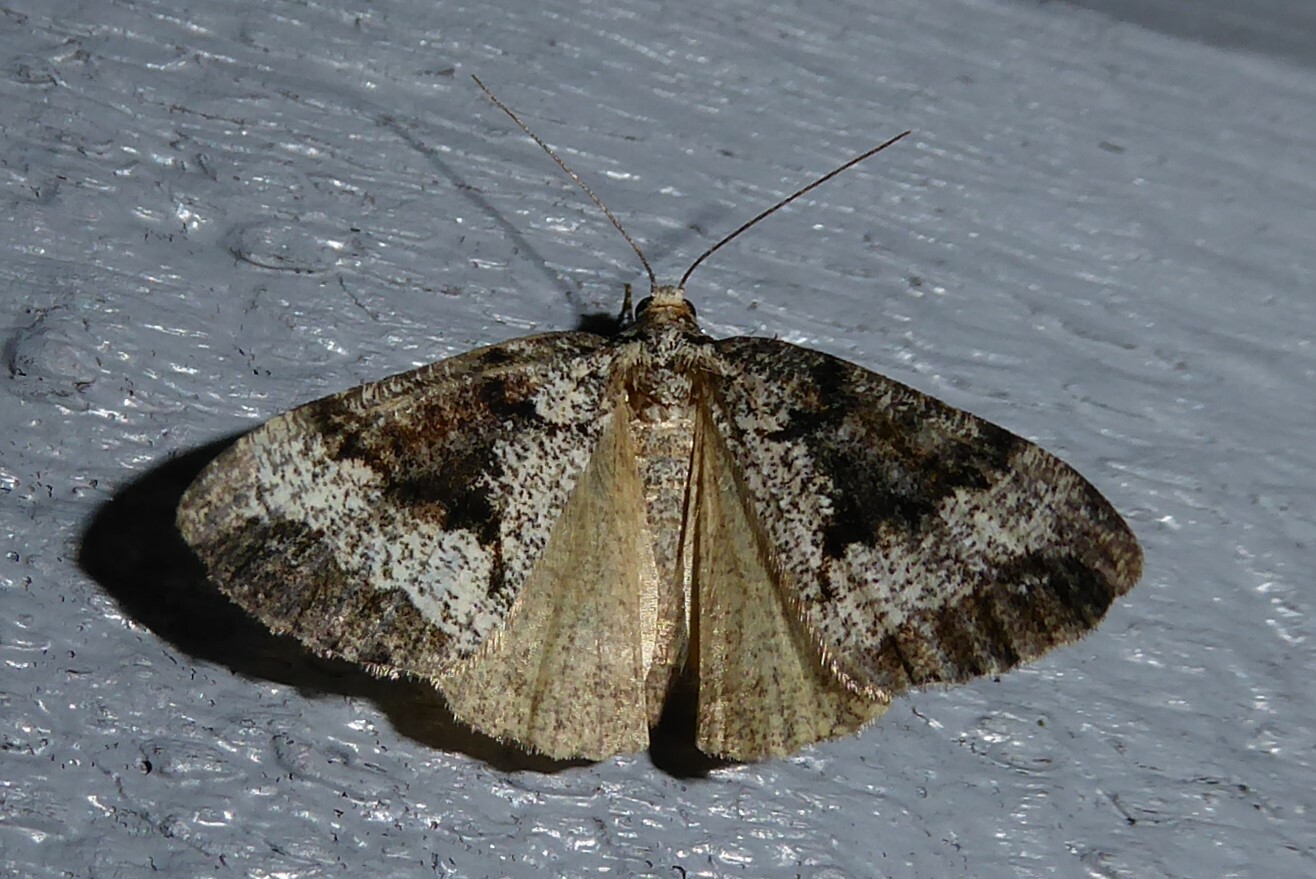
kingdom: Animalia
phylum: Arthropoda
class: Insecta
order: Lepidoptera
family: Geometridae
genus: Pseudocoremia
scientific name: Pseudocoremia leucelaea
